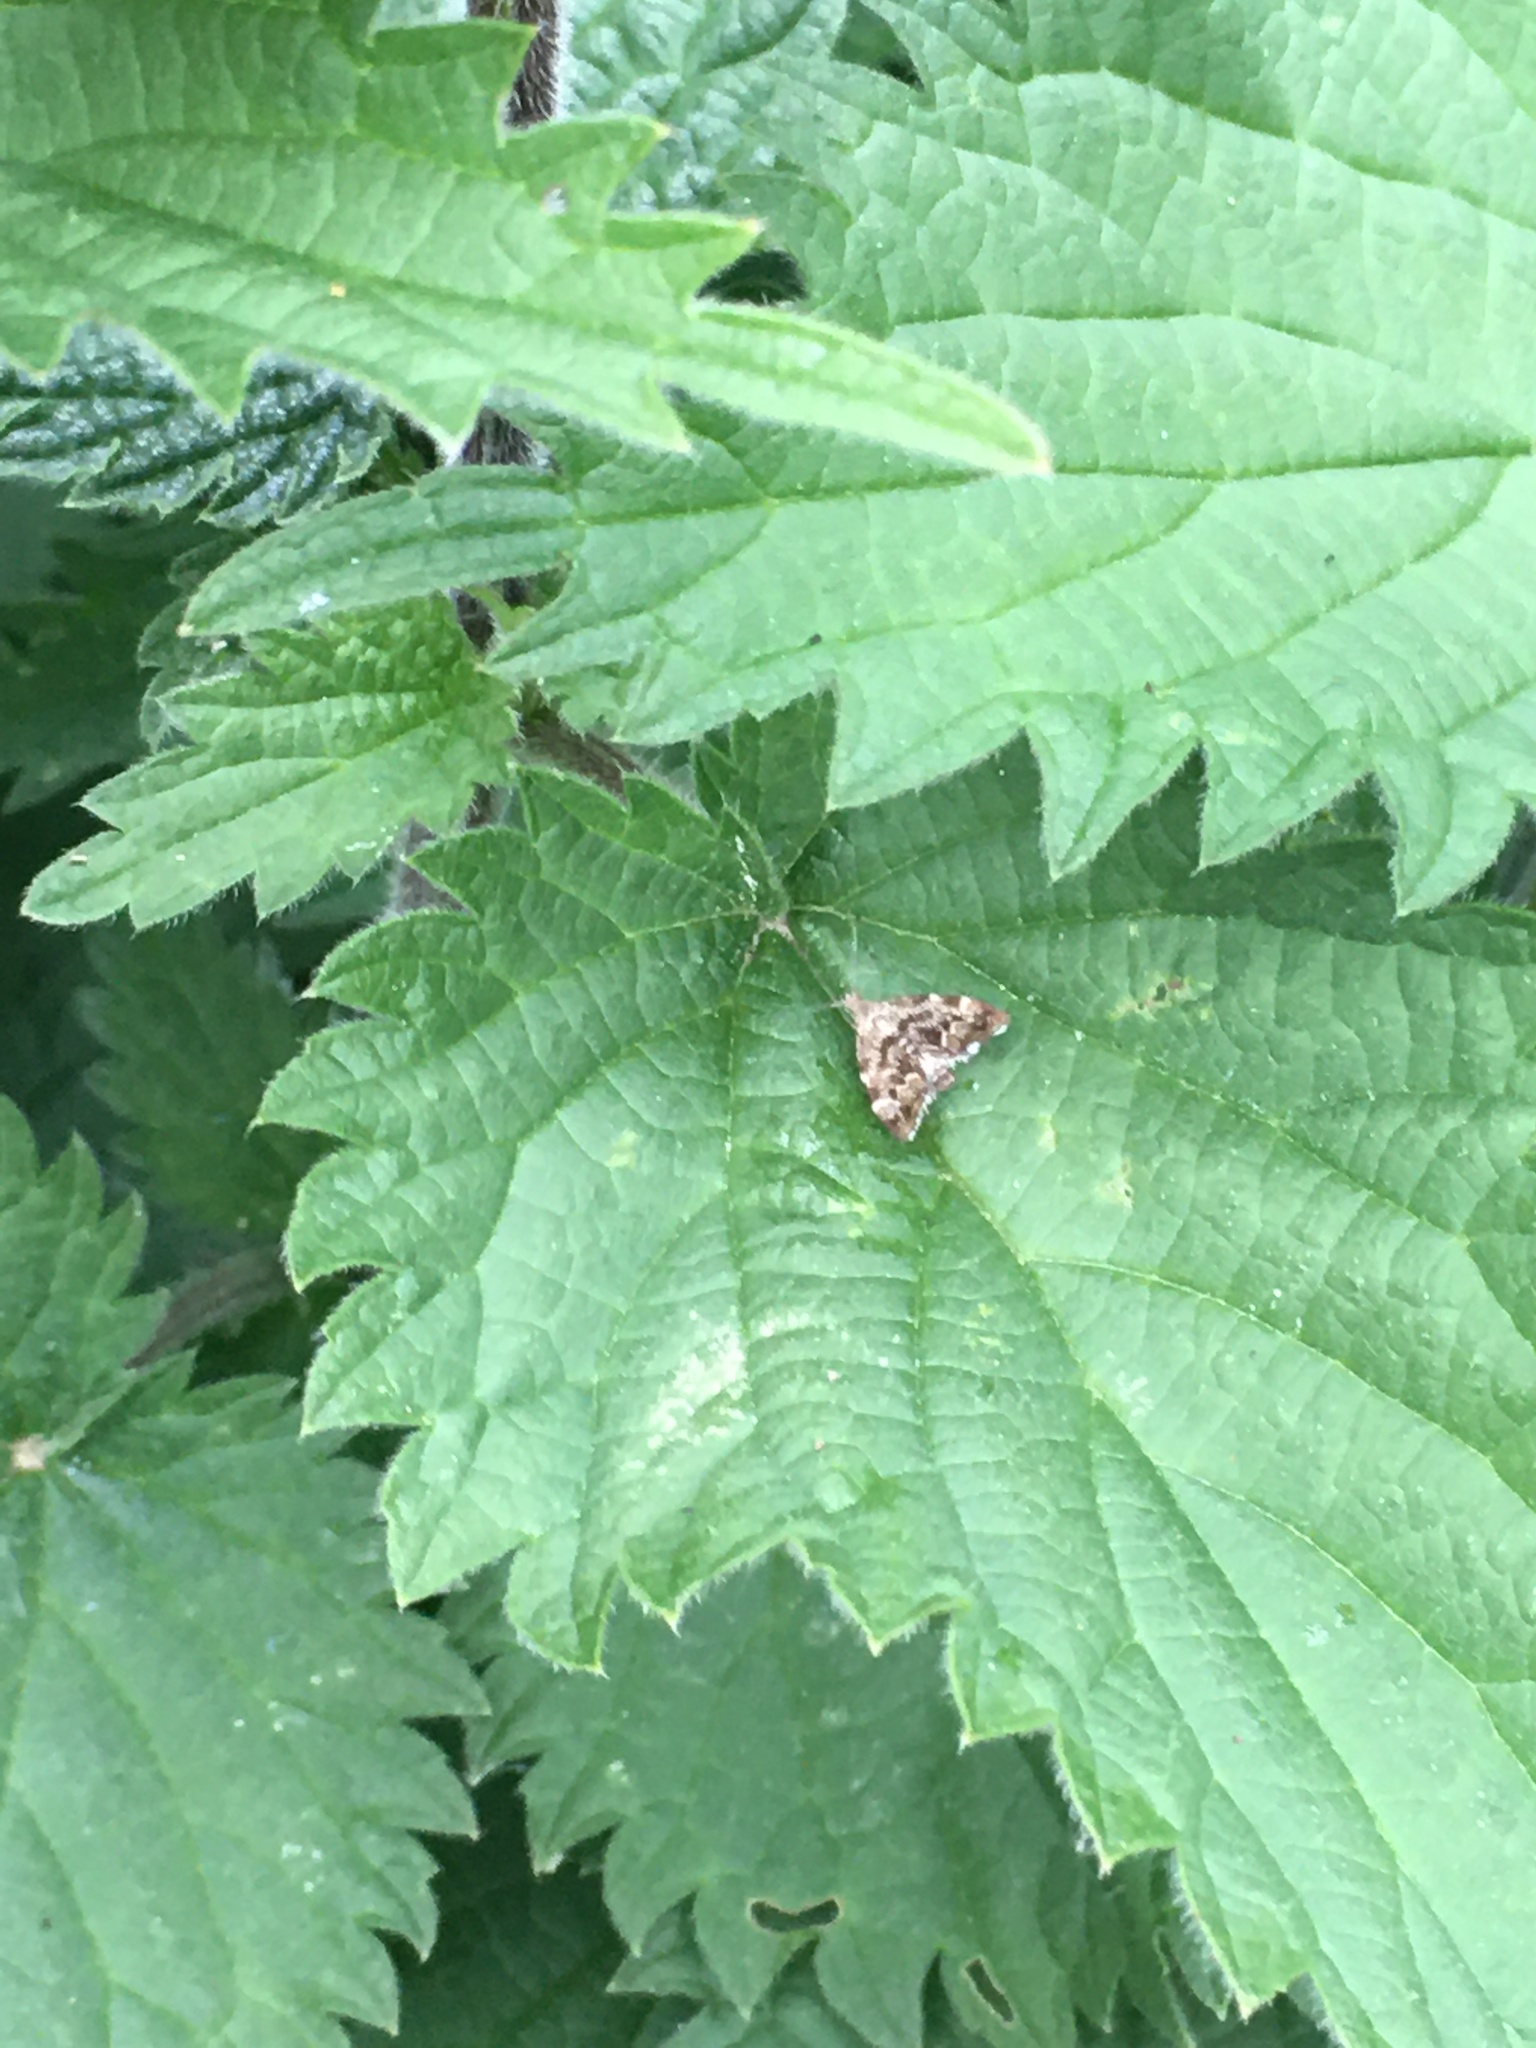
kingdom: Animalia
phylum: Arthropoda
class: Insecta
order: Lepidoptera
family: Choreutidae
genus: Anthophila
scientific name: Anthophila fabriciana
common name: Nettle-tap
